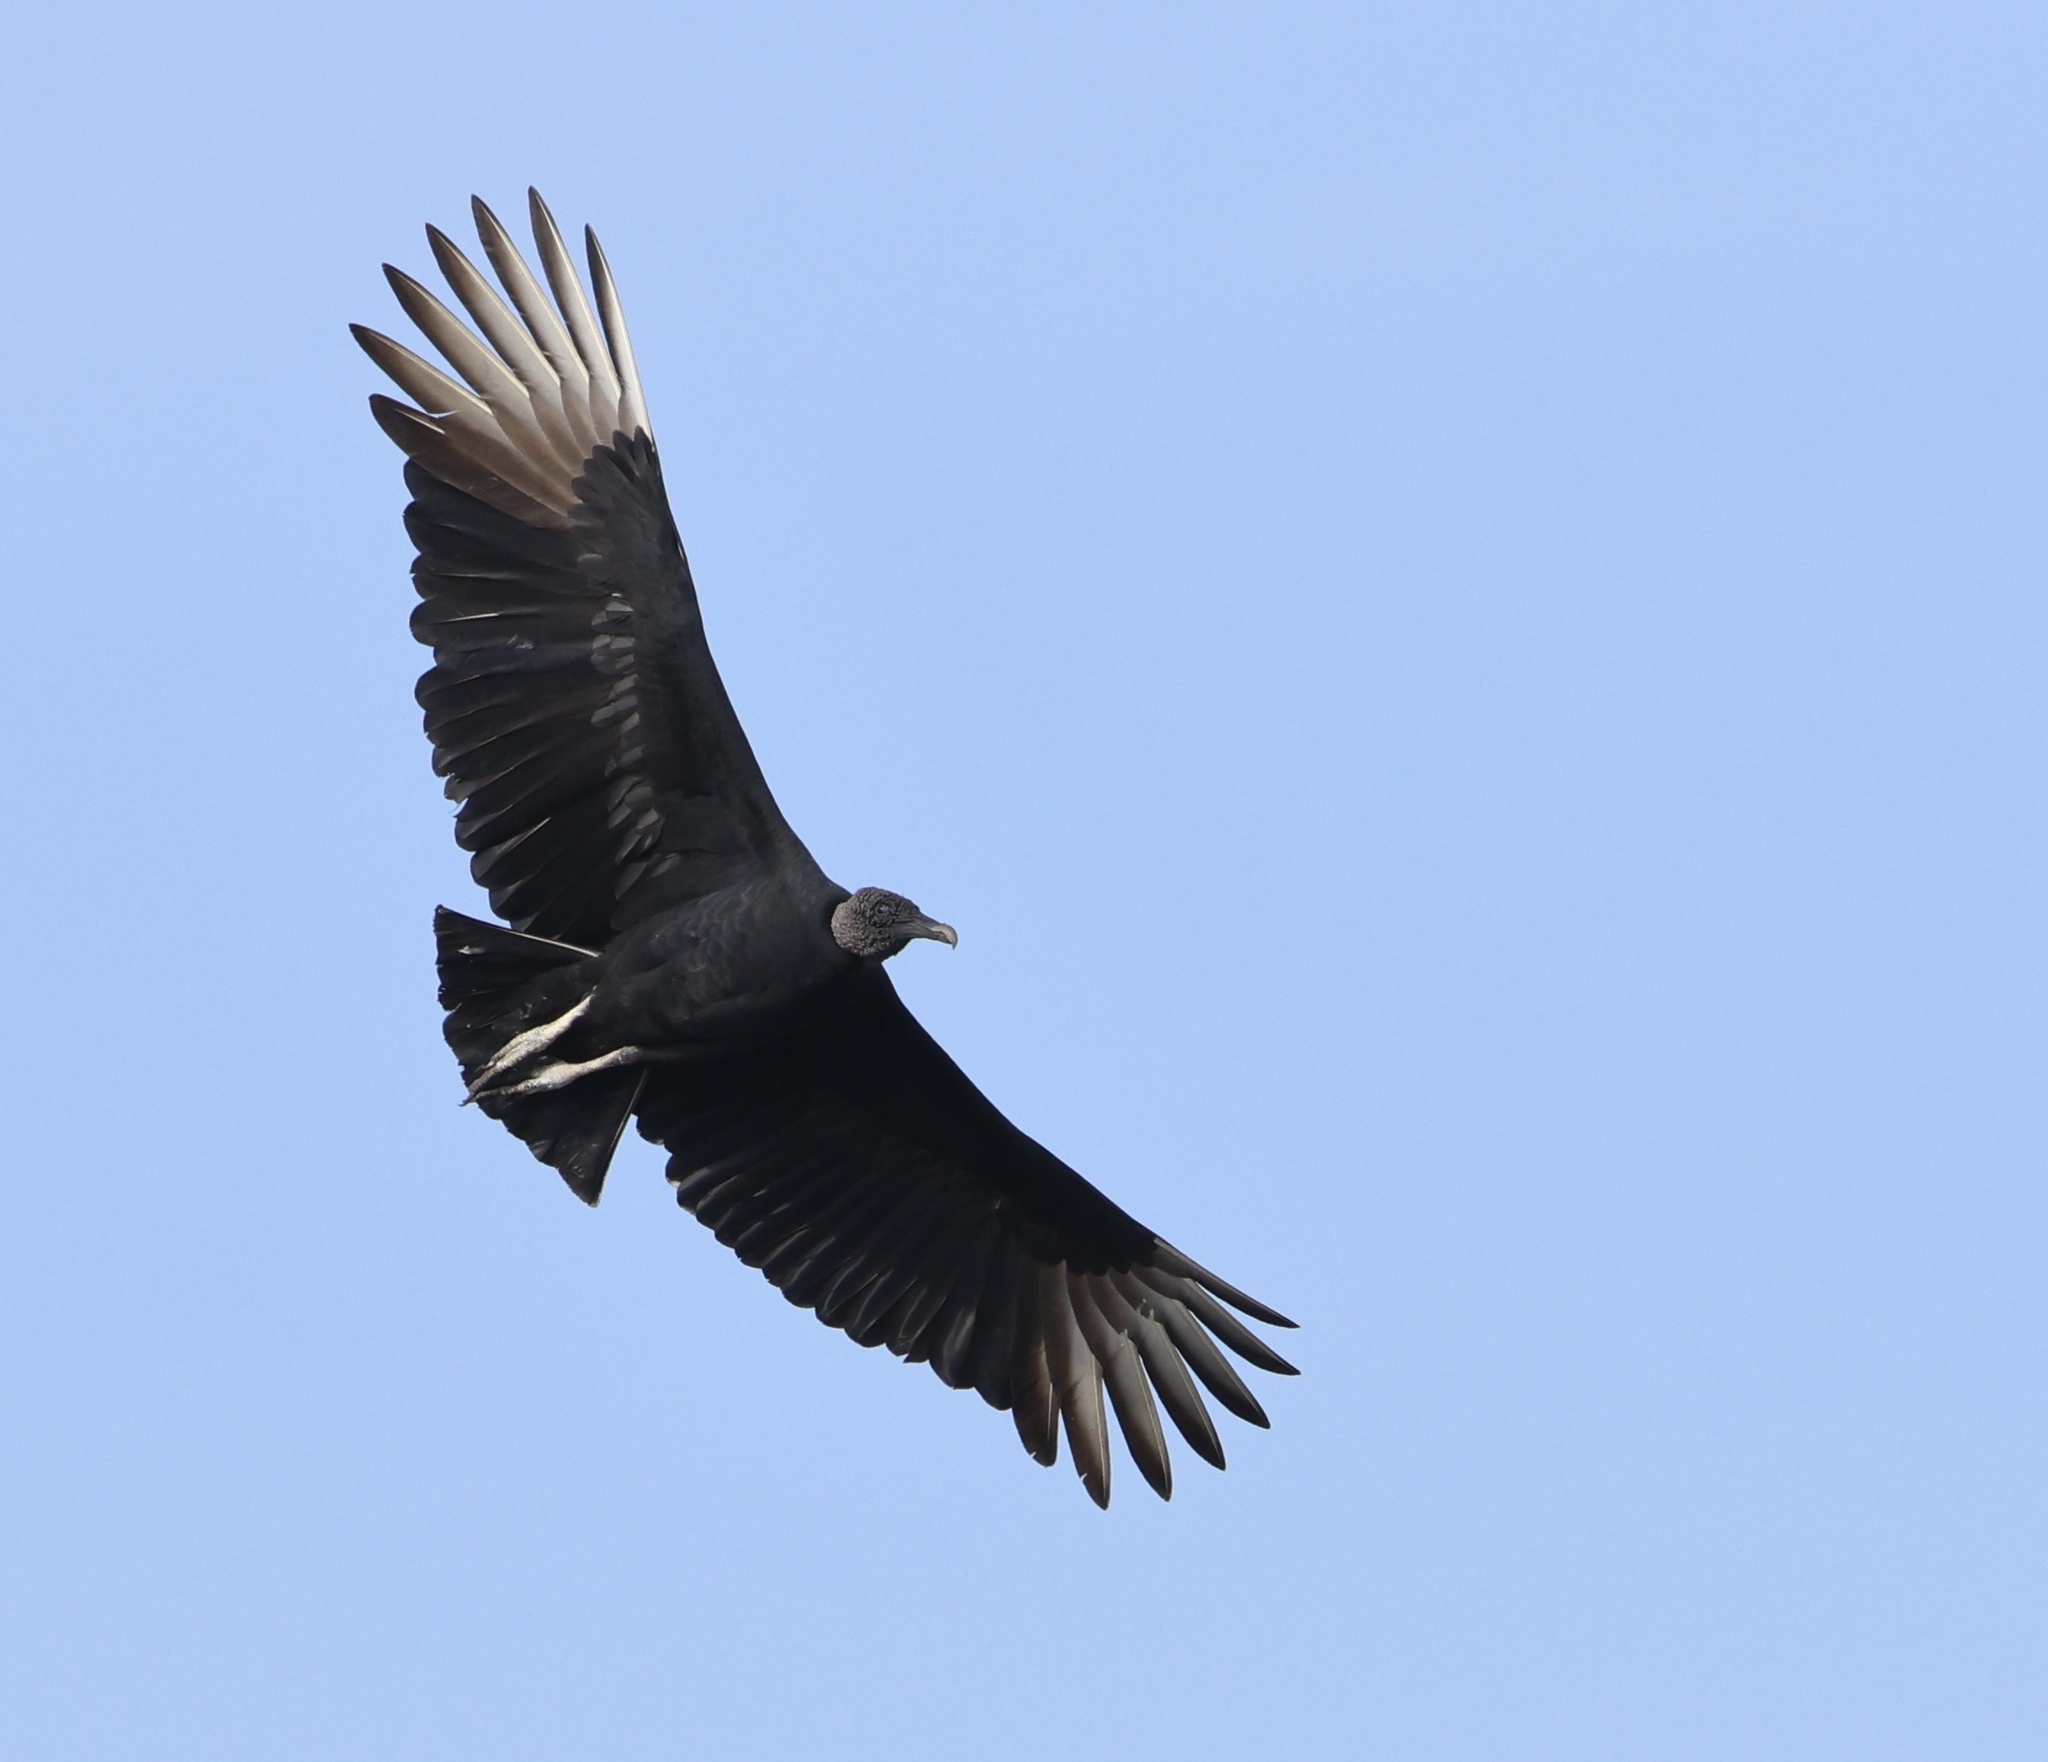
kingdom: Animalia
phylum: Chordata
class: Aves
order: Accipitriformes
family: Cathartidae
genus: Coragyps
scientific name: Coragyps atratus
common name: Black vulture
